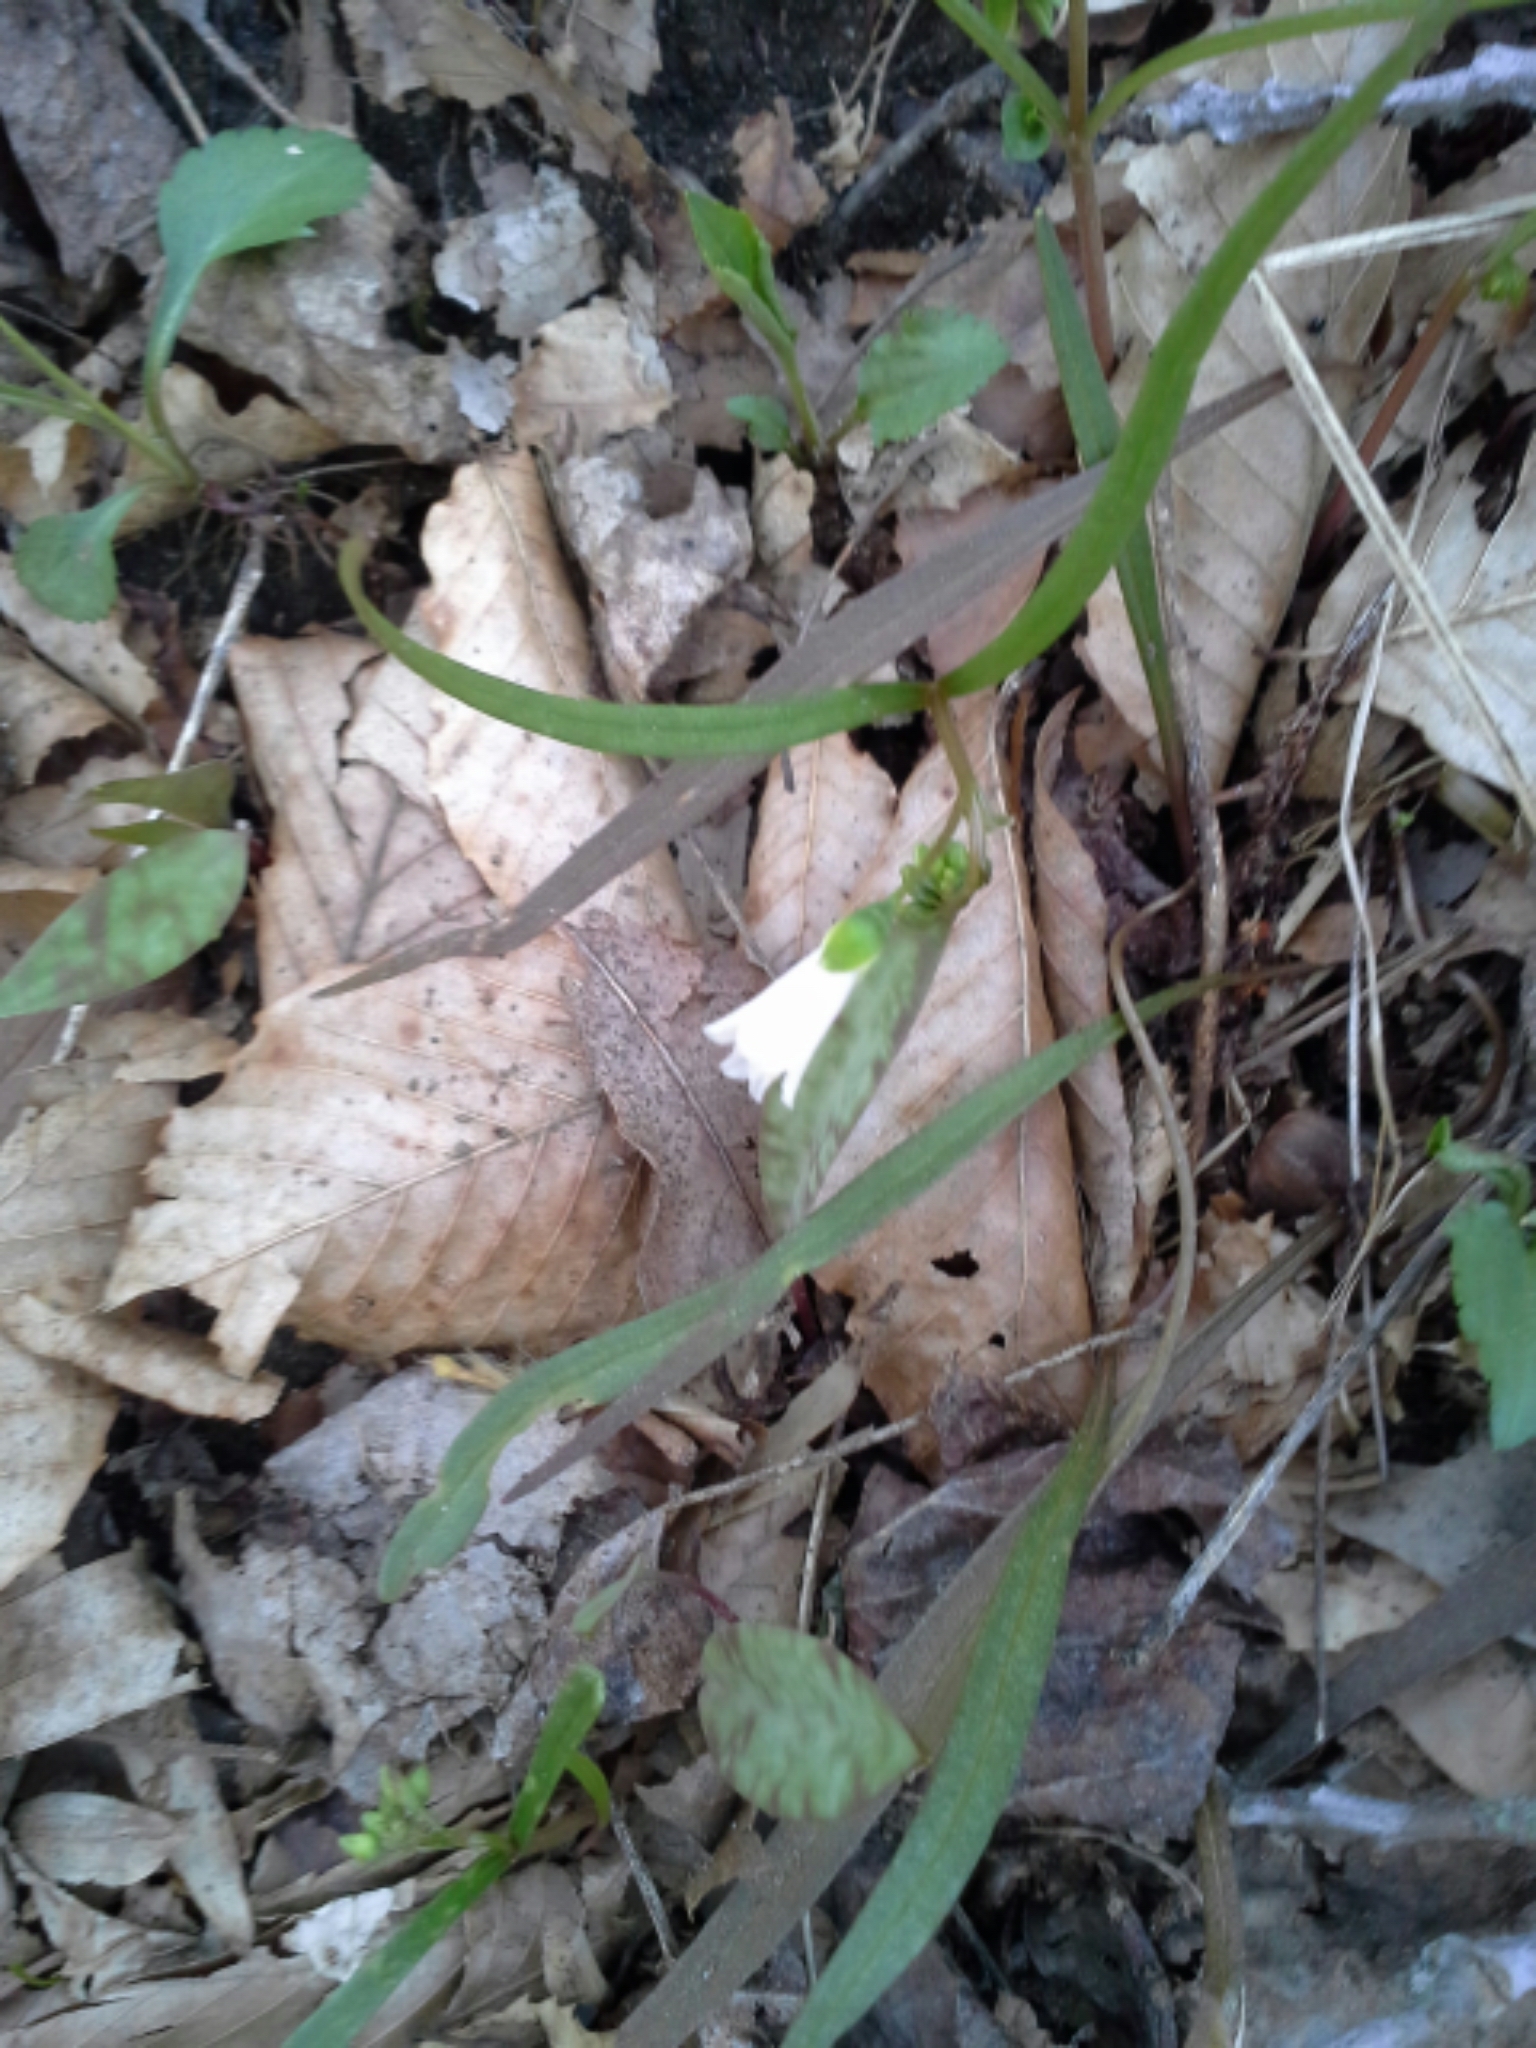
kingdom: Plantae
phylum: Tracheophyta
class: Magnoliopsida
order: Caryophyllales
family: Montiaceae
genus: Claytonia
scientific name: Claytonia virginica
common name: Virginia springbeauty
